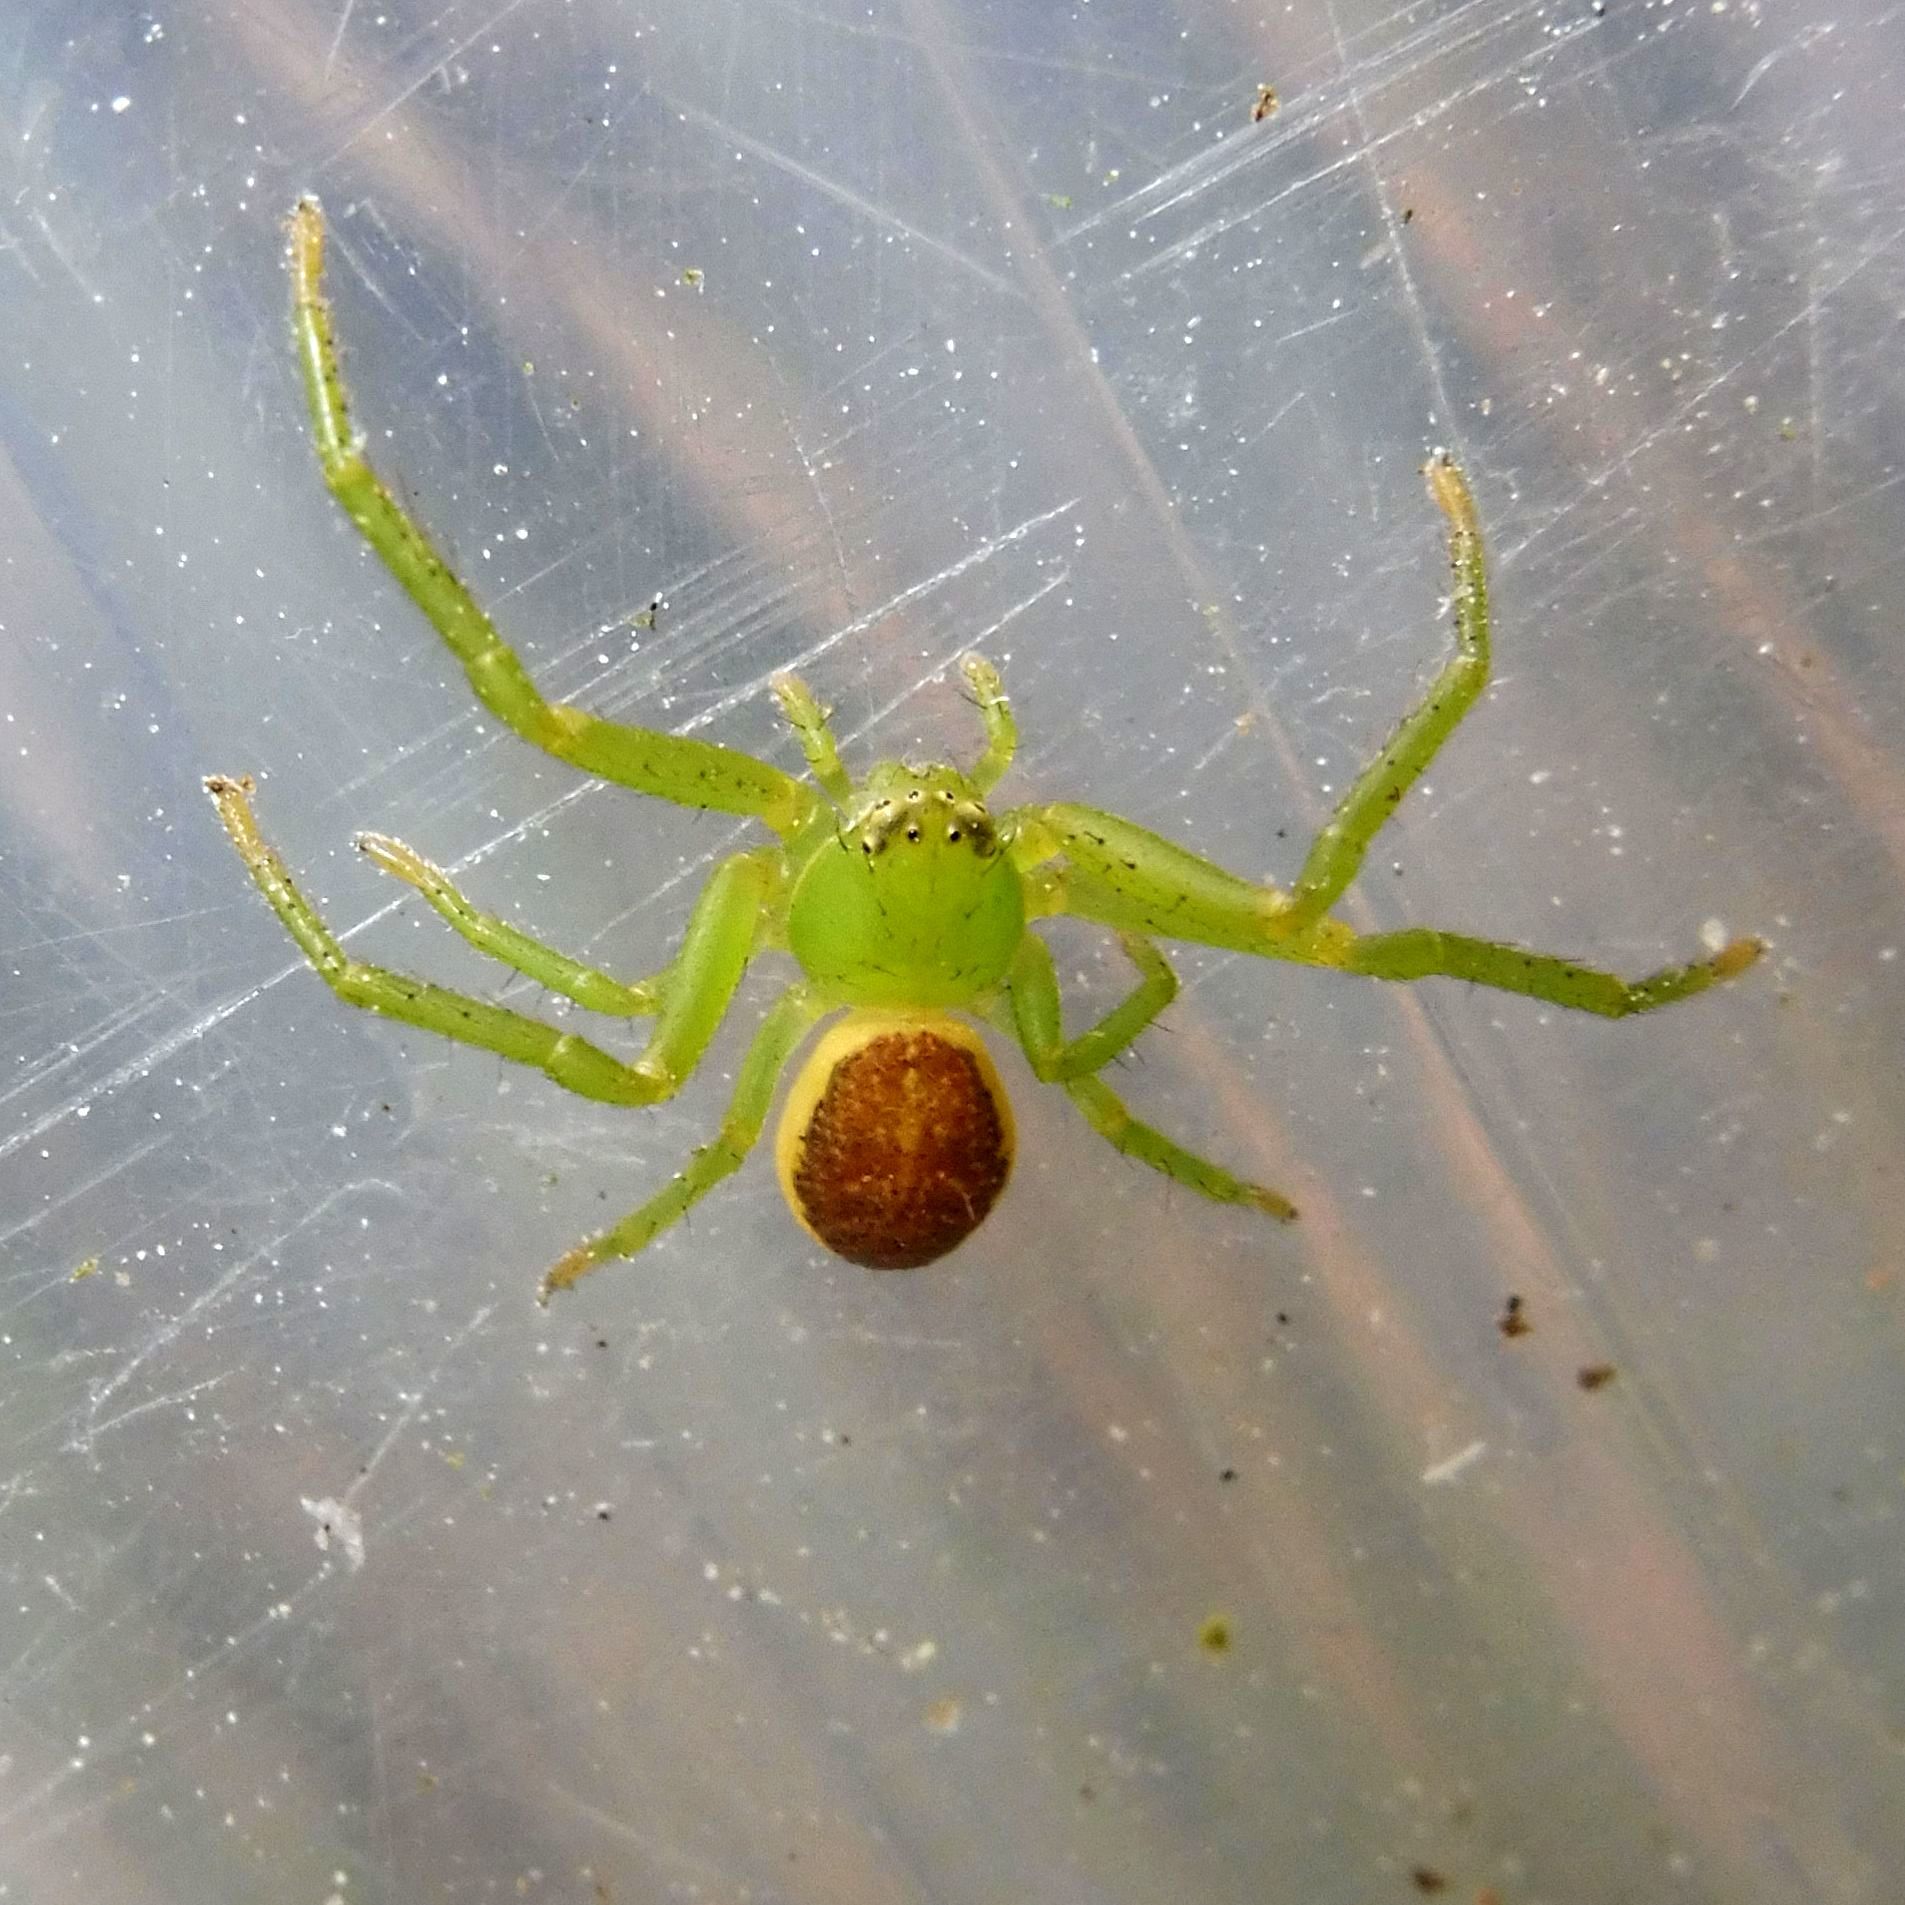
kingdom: Animalia
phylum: Arthropoda
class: Arachnida
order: Araneae
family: Thomisidae
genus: Diaea
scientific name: Diaea dorsata
